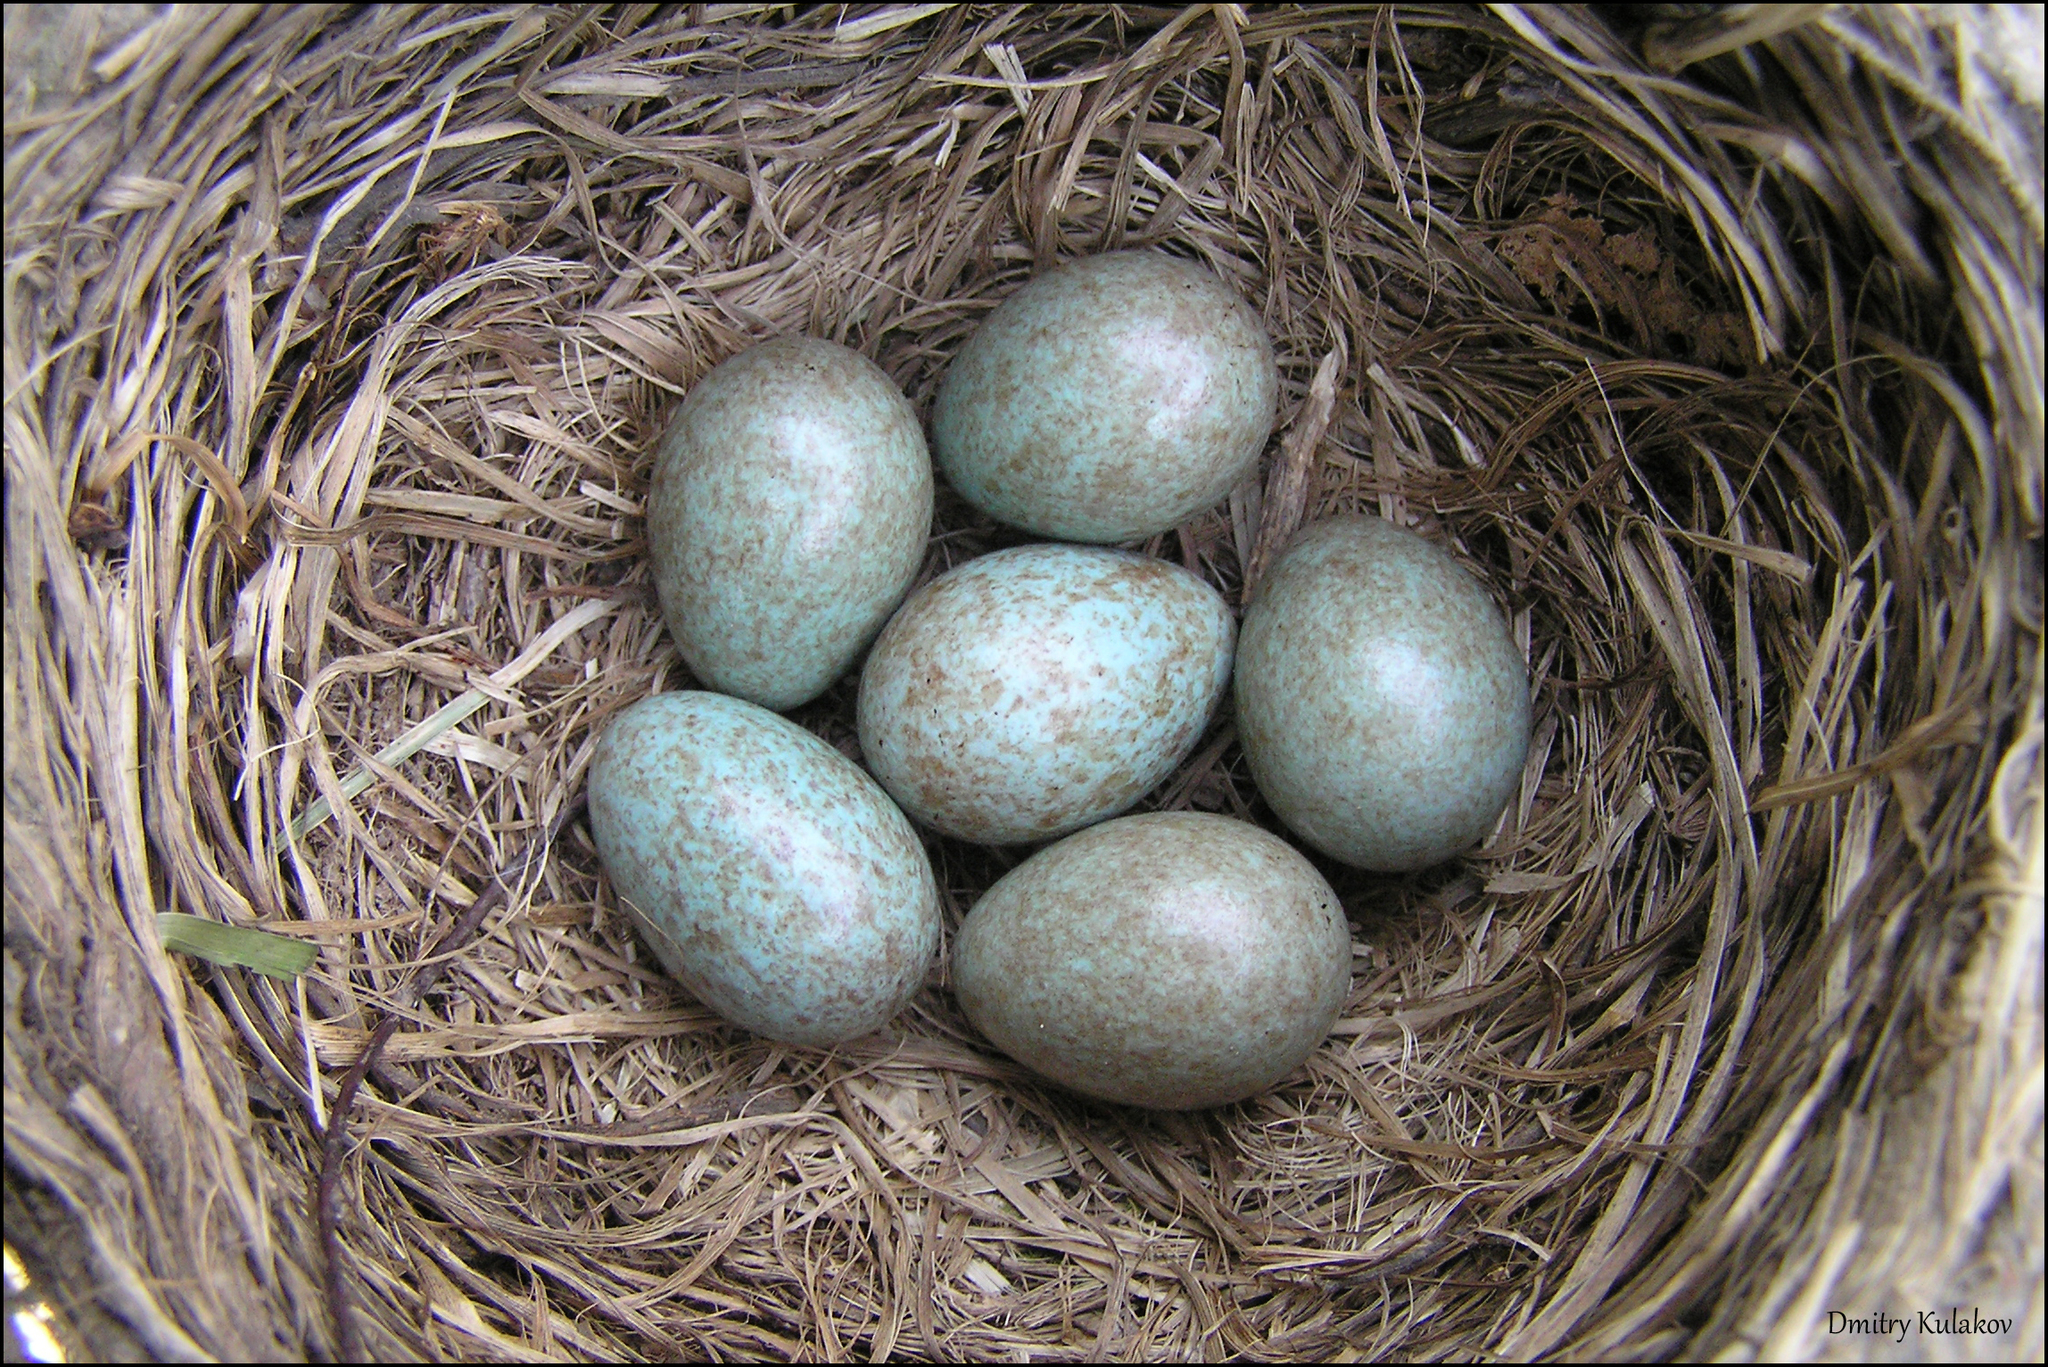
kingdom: Animalia
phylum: Chordata
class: Aves
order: Passeriformes
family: Turdidae
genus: Turdus
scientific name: Turdus pilaris
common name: Fieldfare
